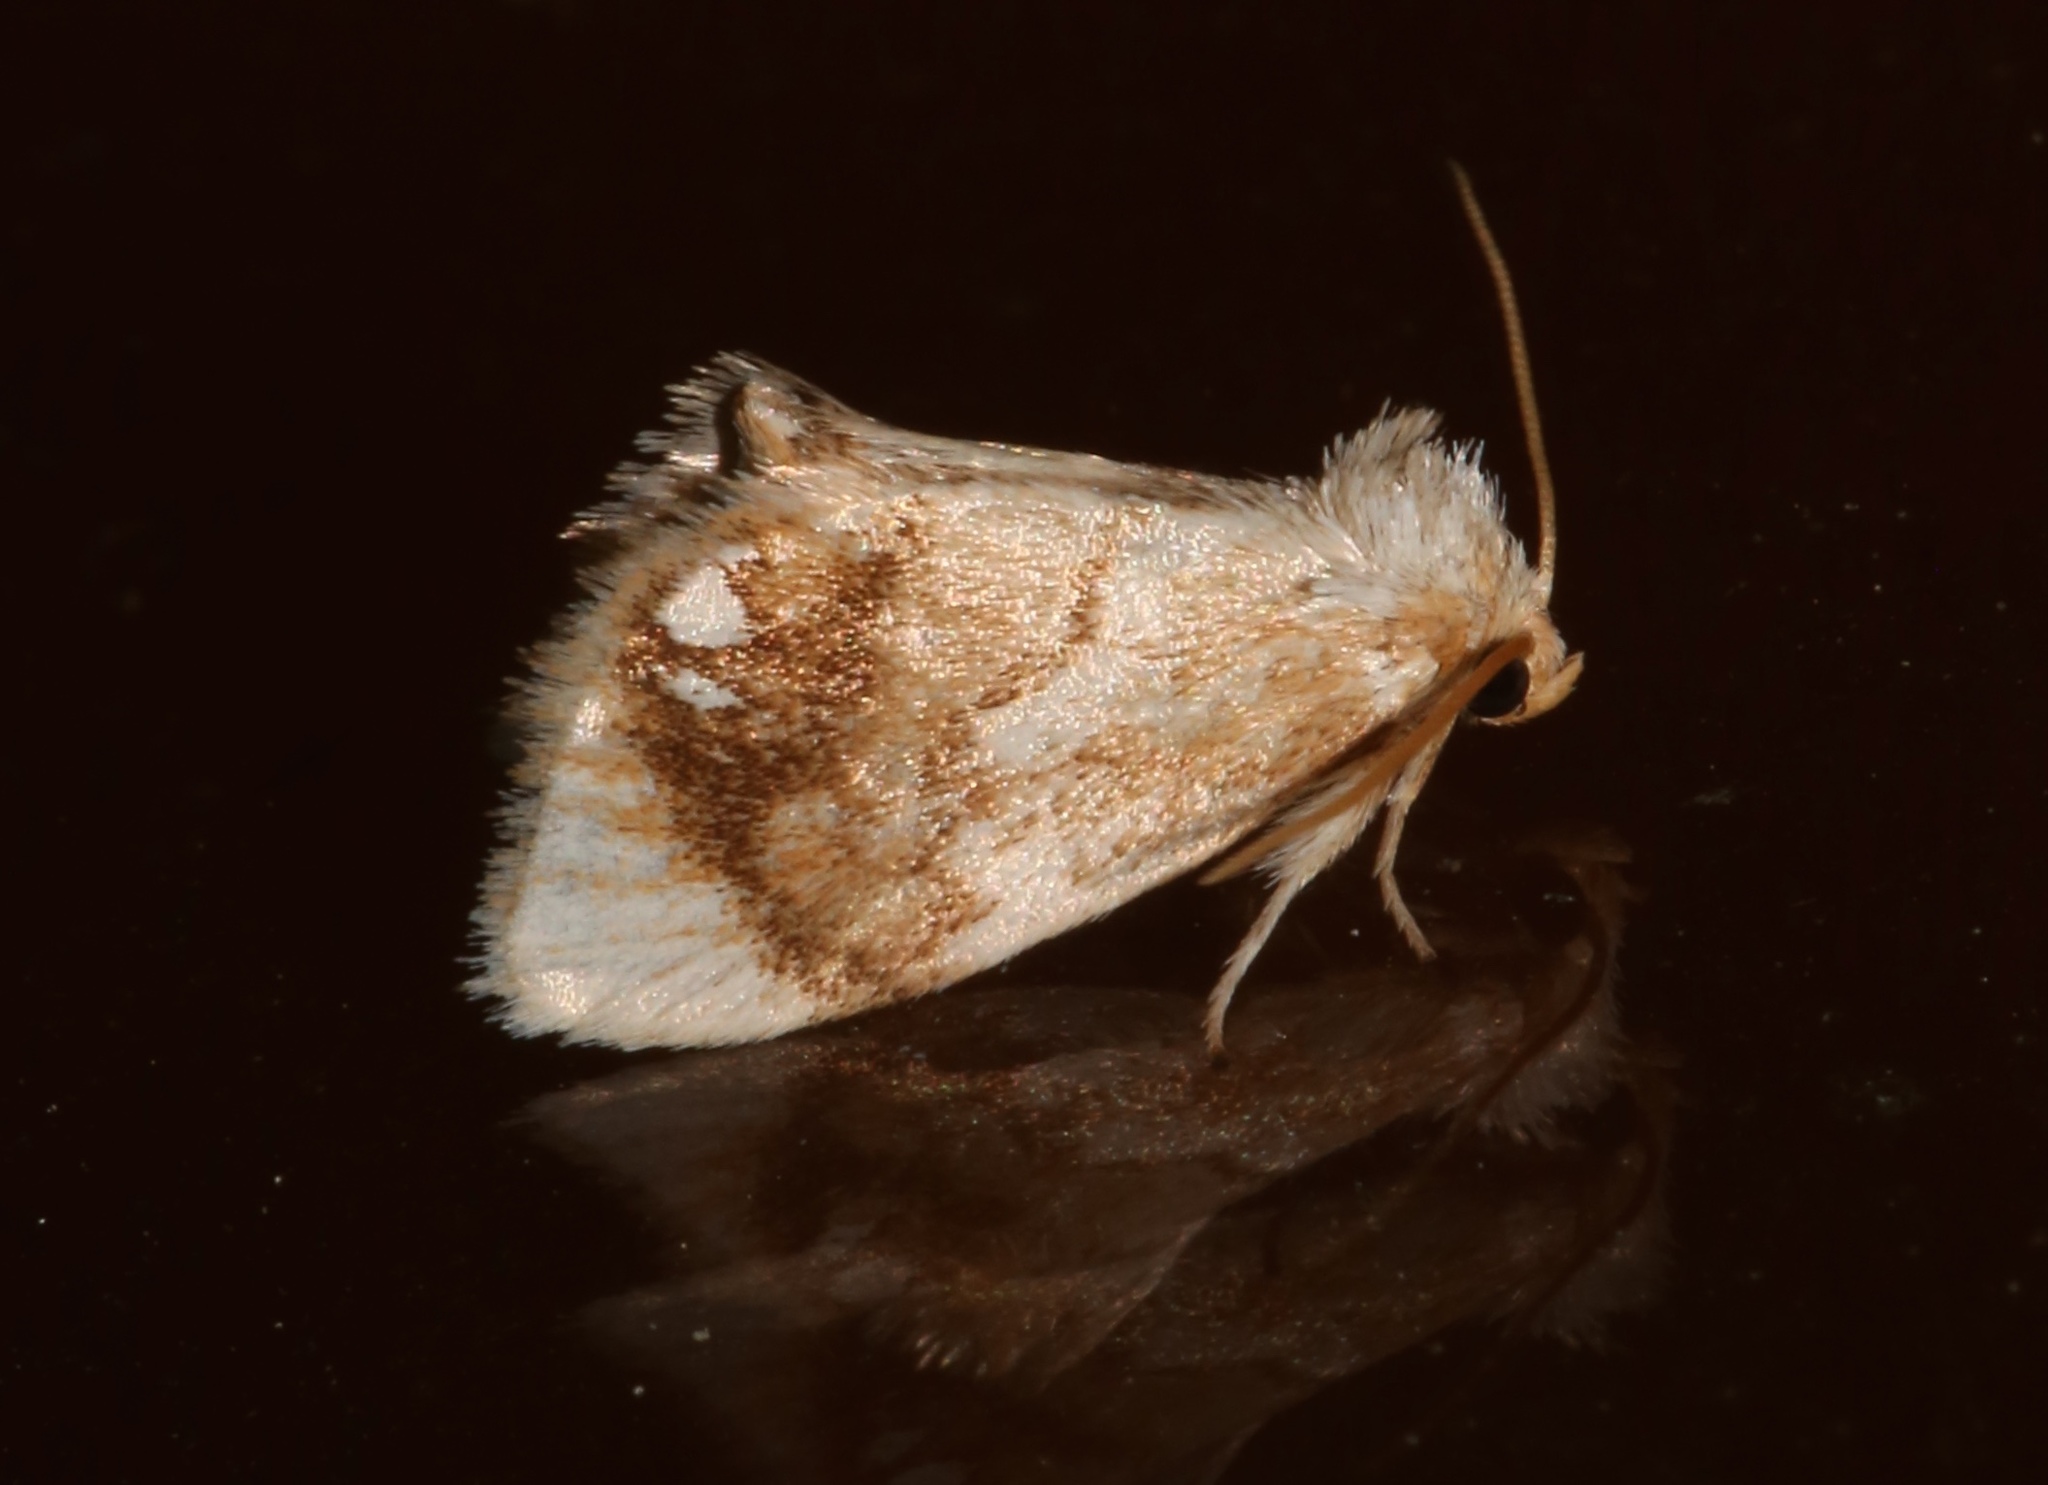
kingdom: Animalia
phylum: Arthropoda
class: Insecta
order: Lepidoptera
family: Limacodidae
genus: Packardia
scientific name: Packardia geminata
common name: Jeweled tailed slug moth
